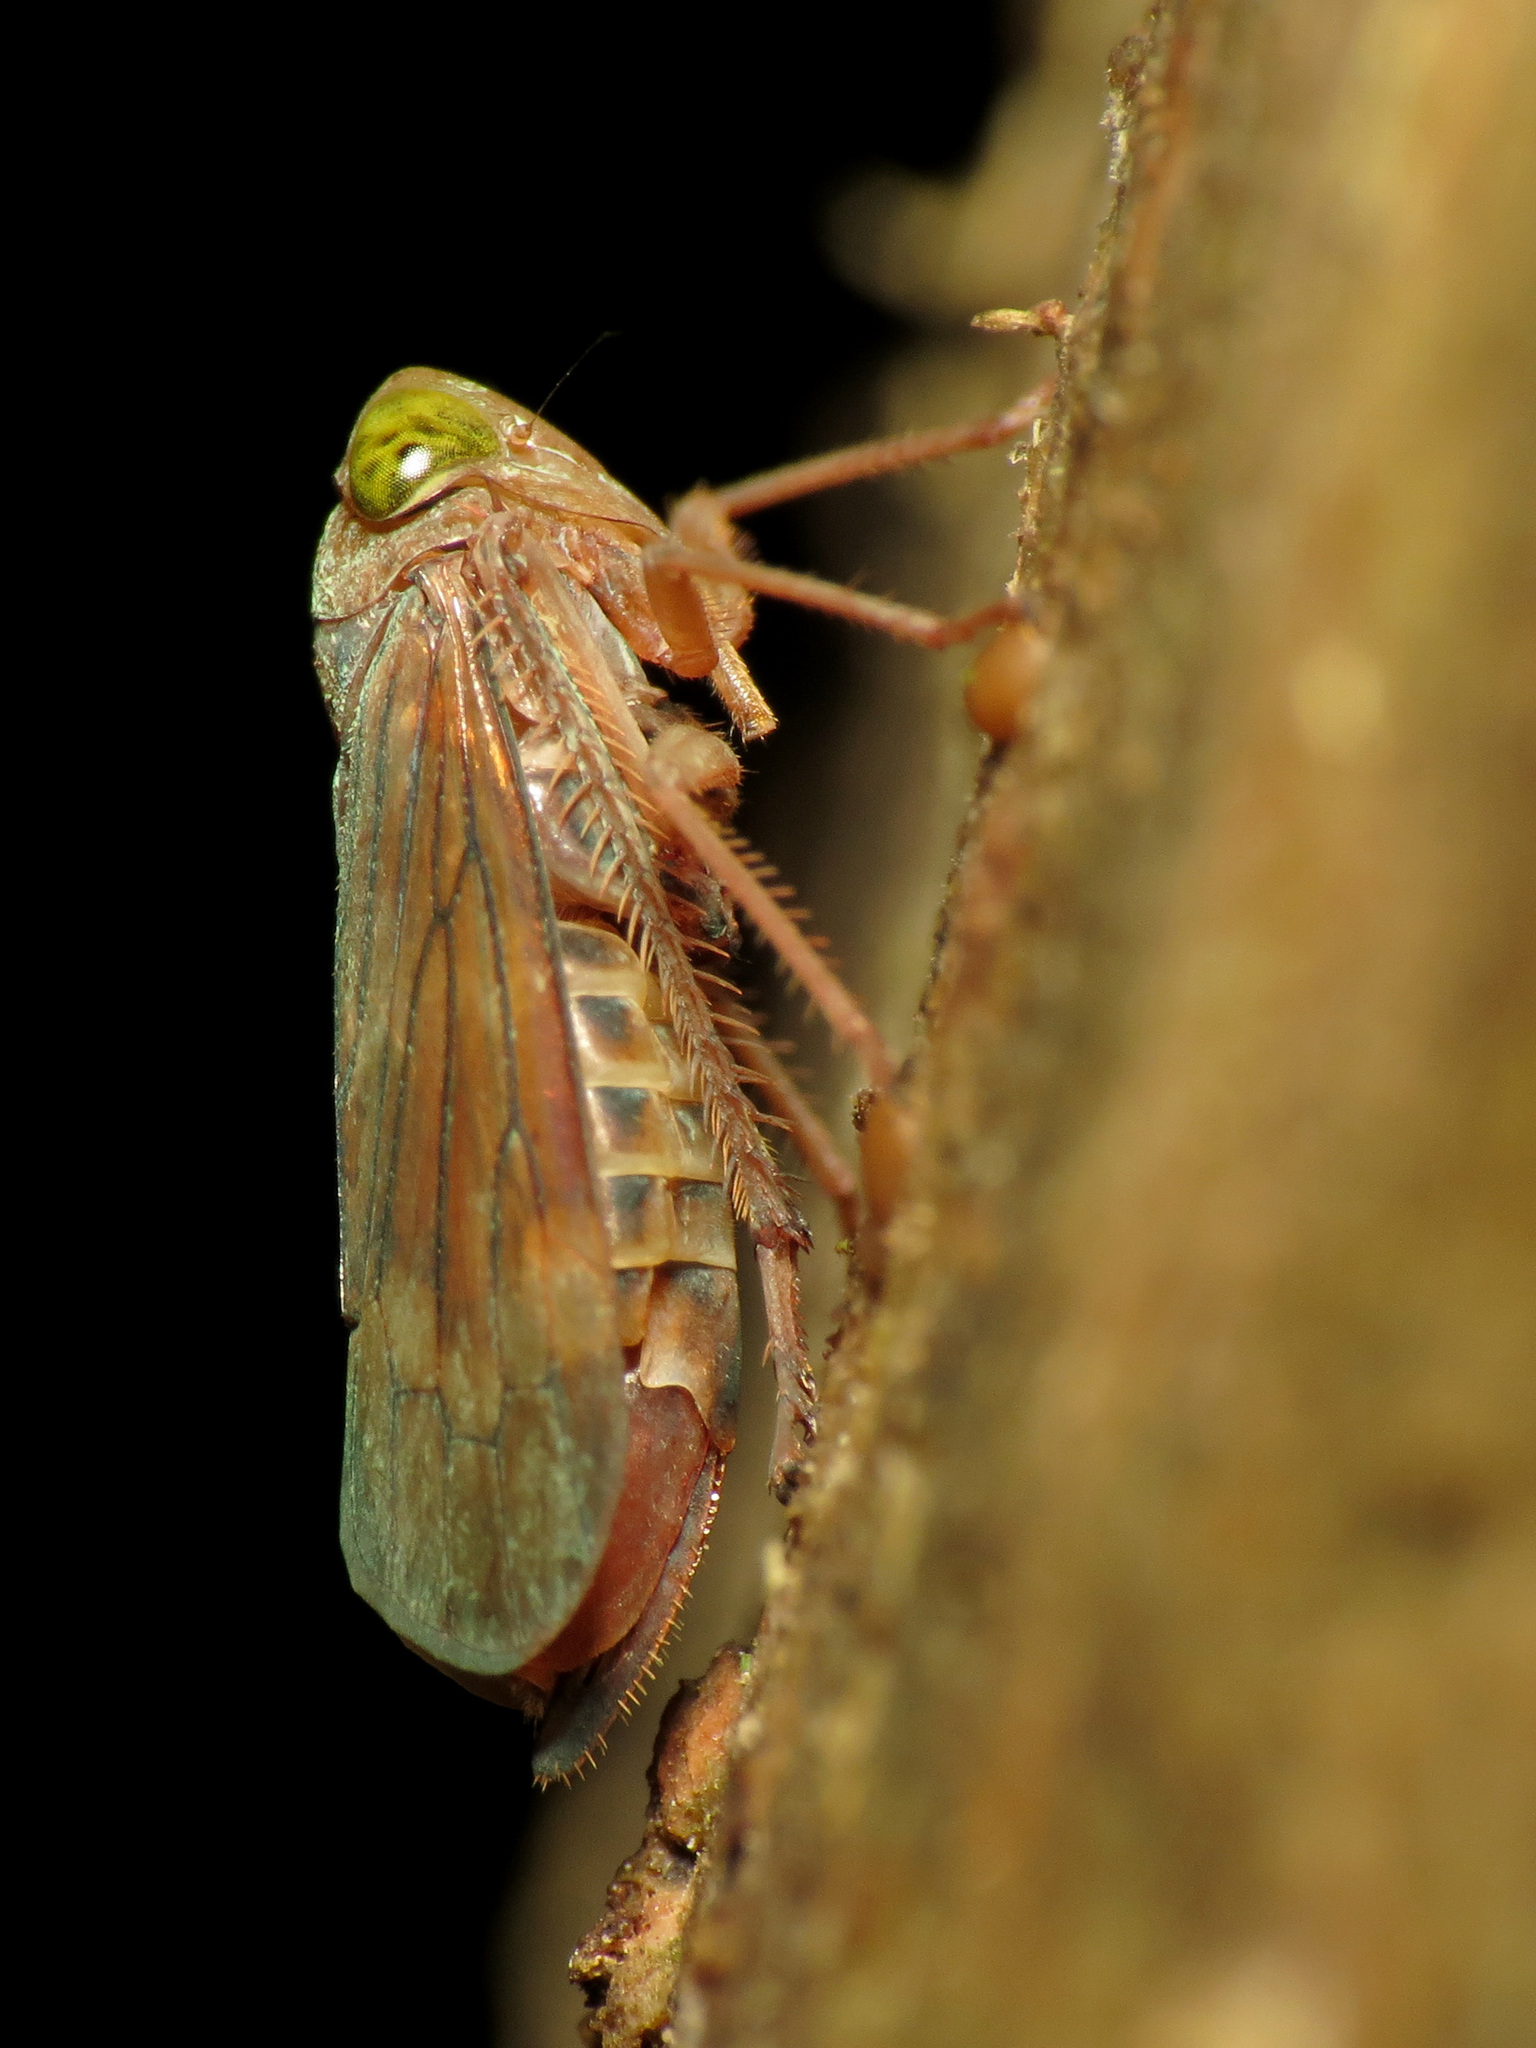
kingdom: Animalia
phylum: Arthropoda
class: Insecta
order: Hemiptera
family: Cicadellidae
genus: Jikradia
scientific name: Jikradia olitoria
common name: Coppery leafhopper
